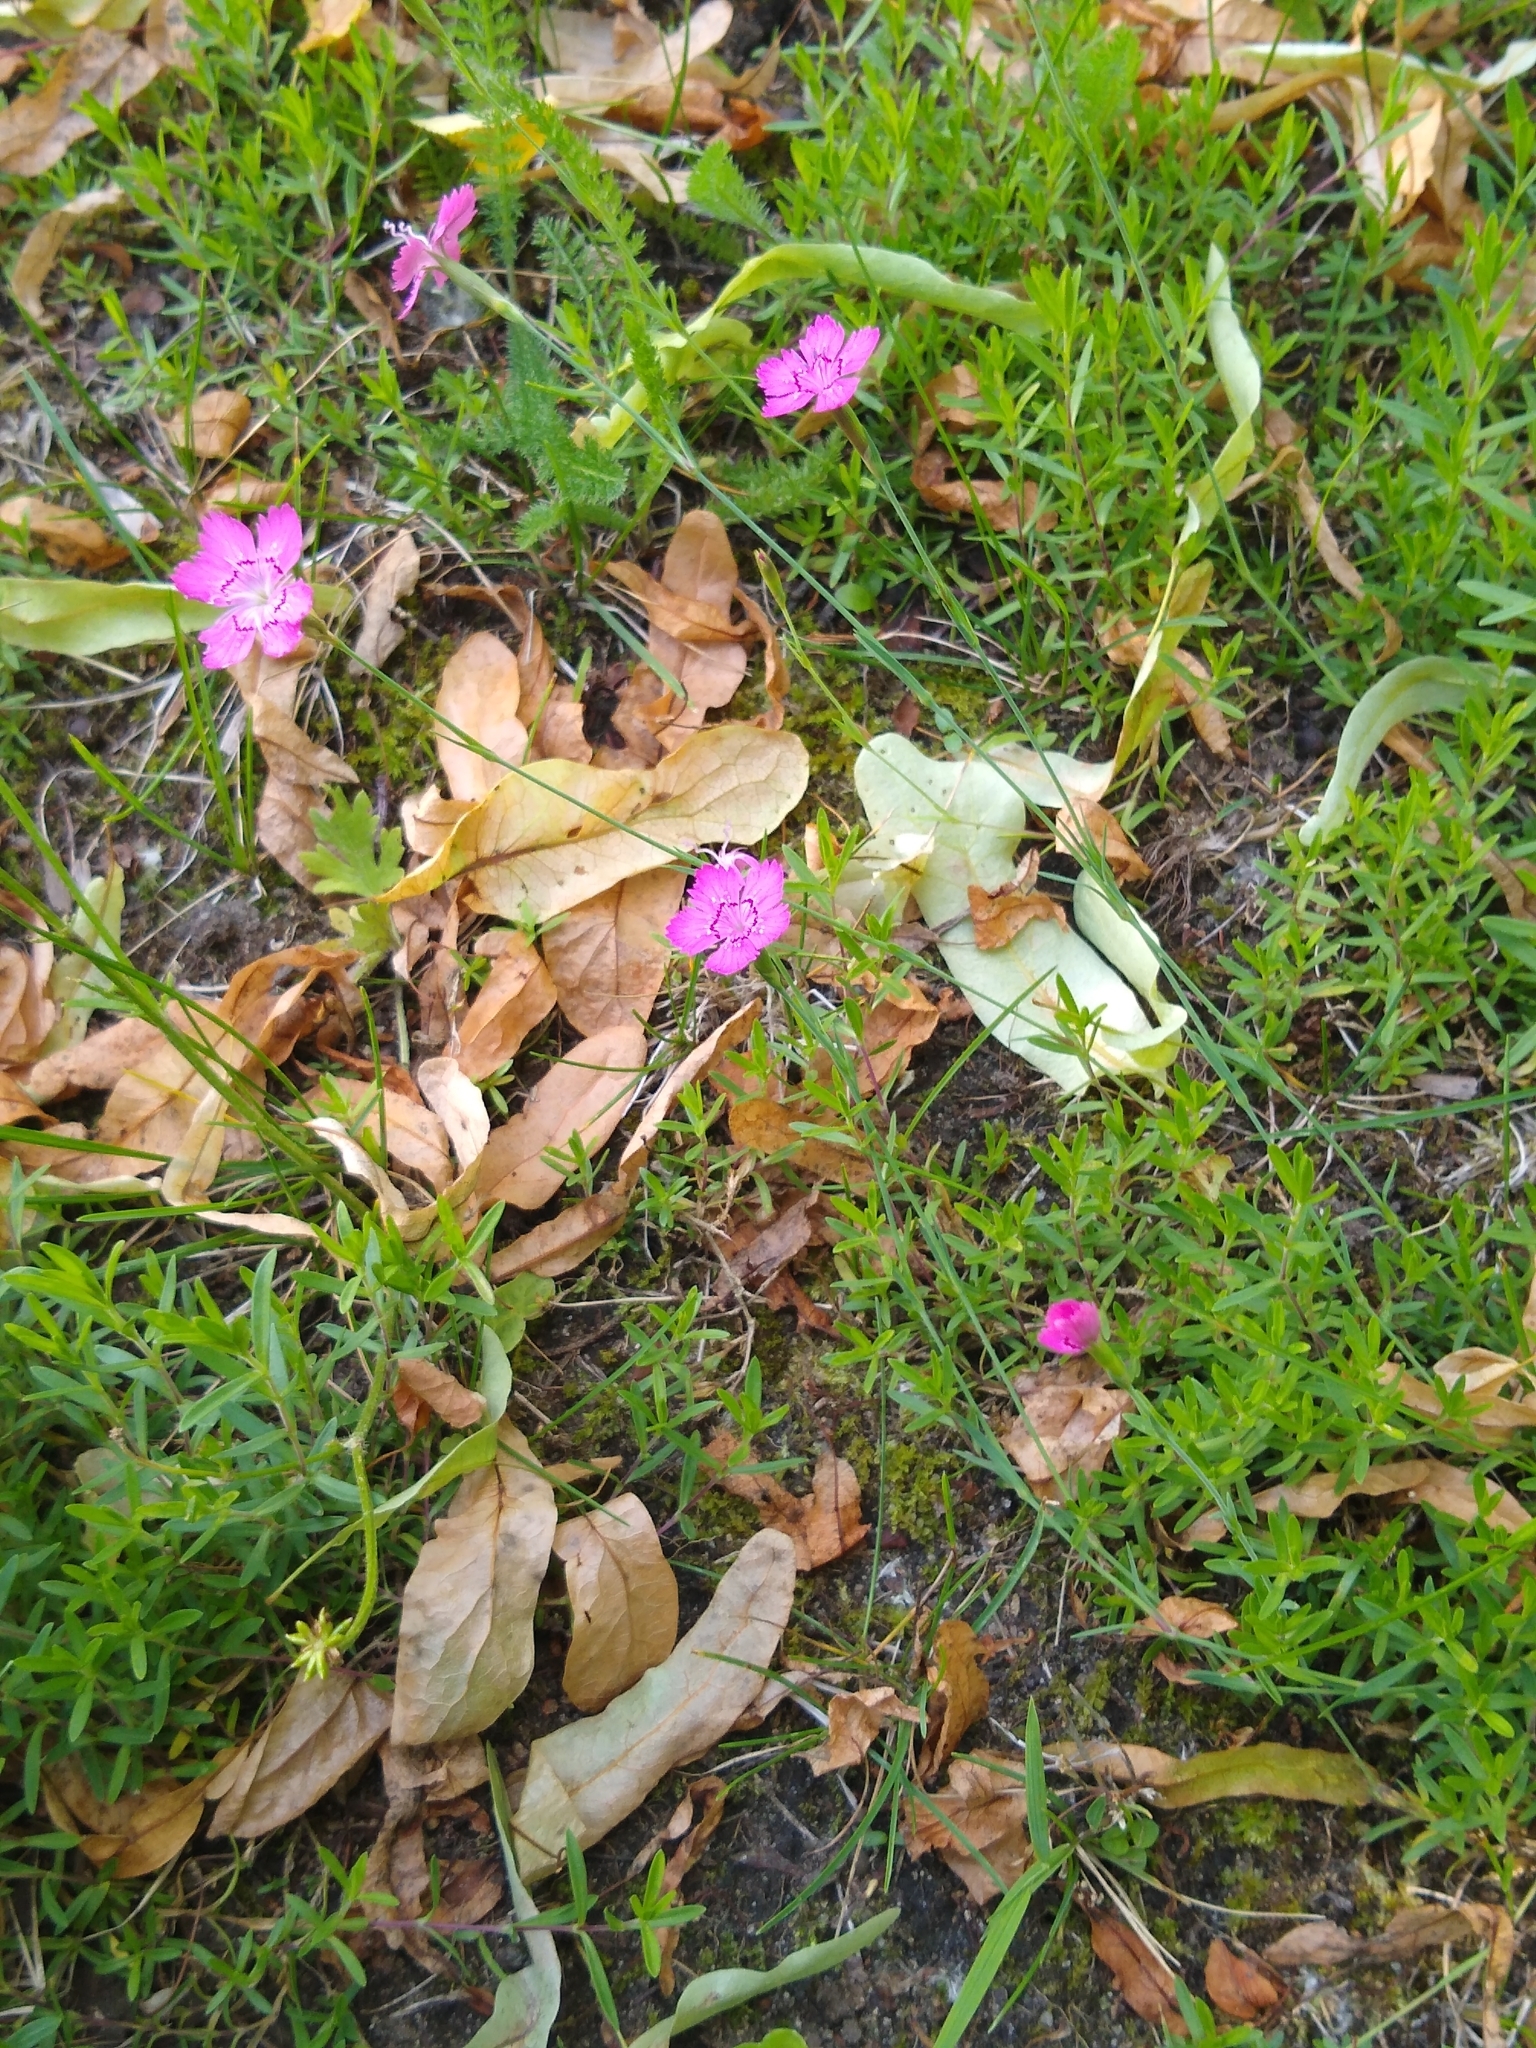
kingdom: Plantae
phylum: Tracheophyta
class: Magnoliopsida
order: Caryophyllales
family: Caryophyllaceae
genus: Dianthus
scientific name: Dianthus deltoides
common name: Maiden pink
